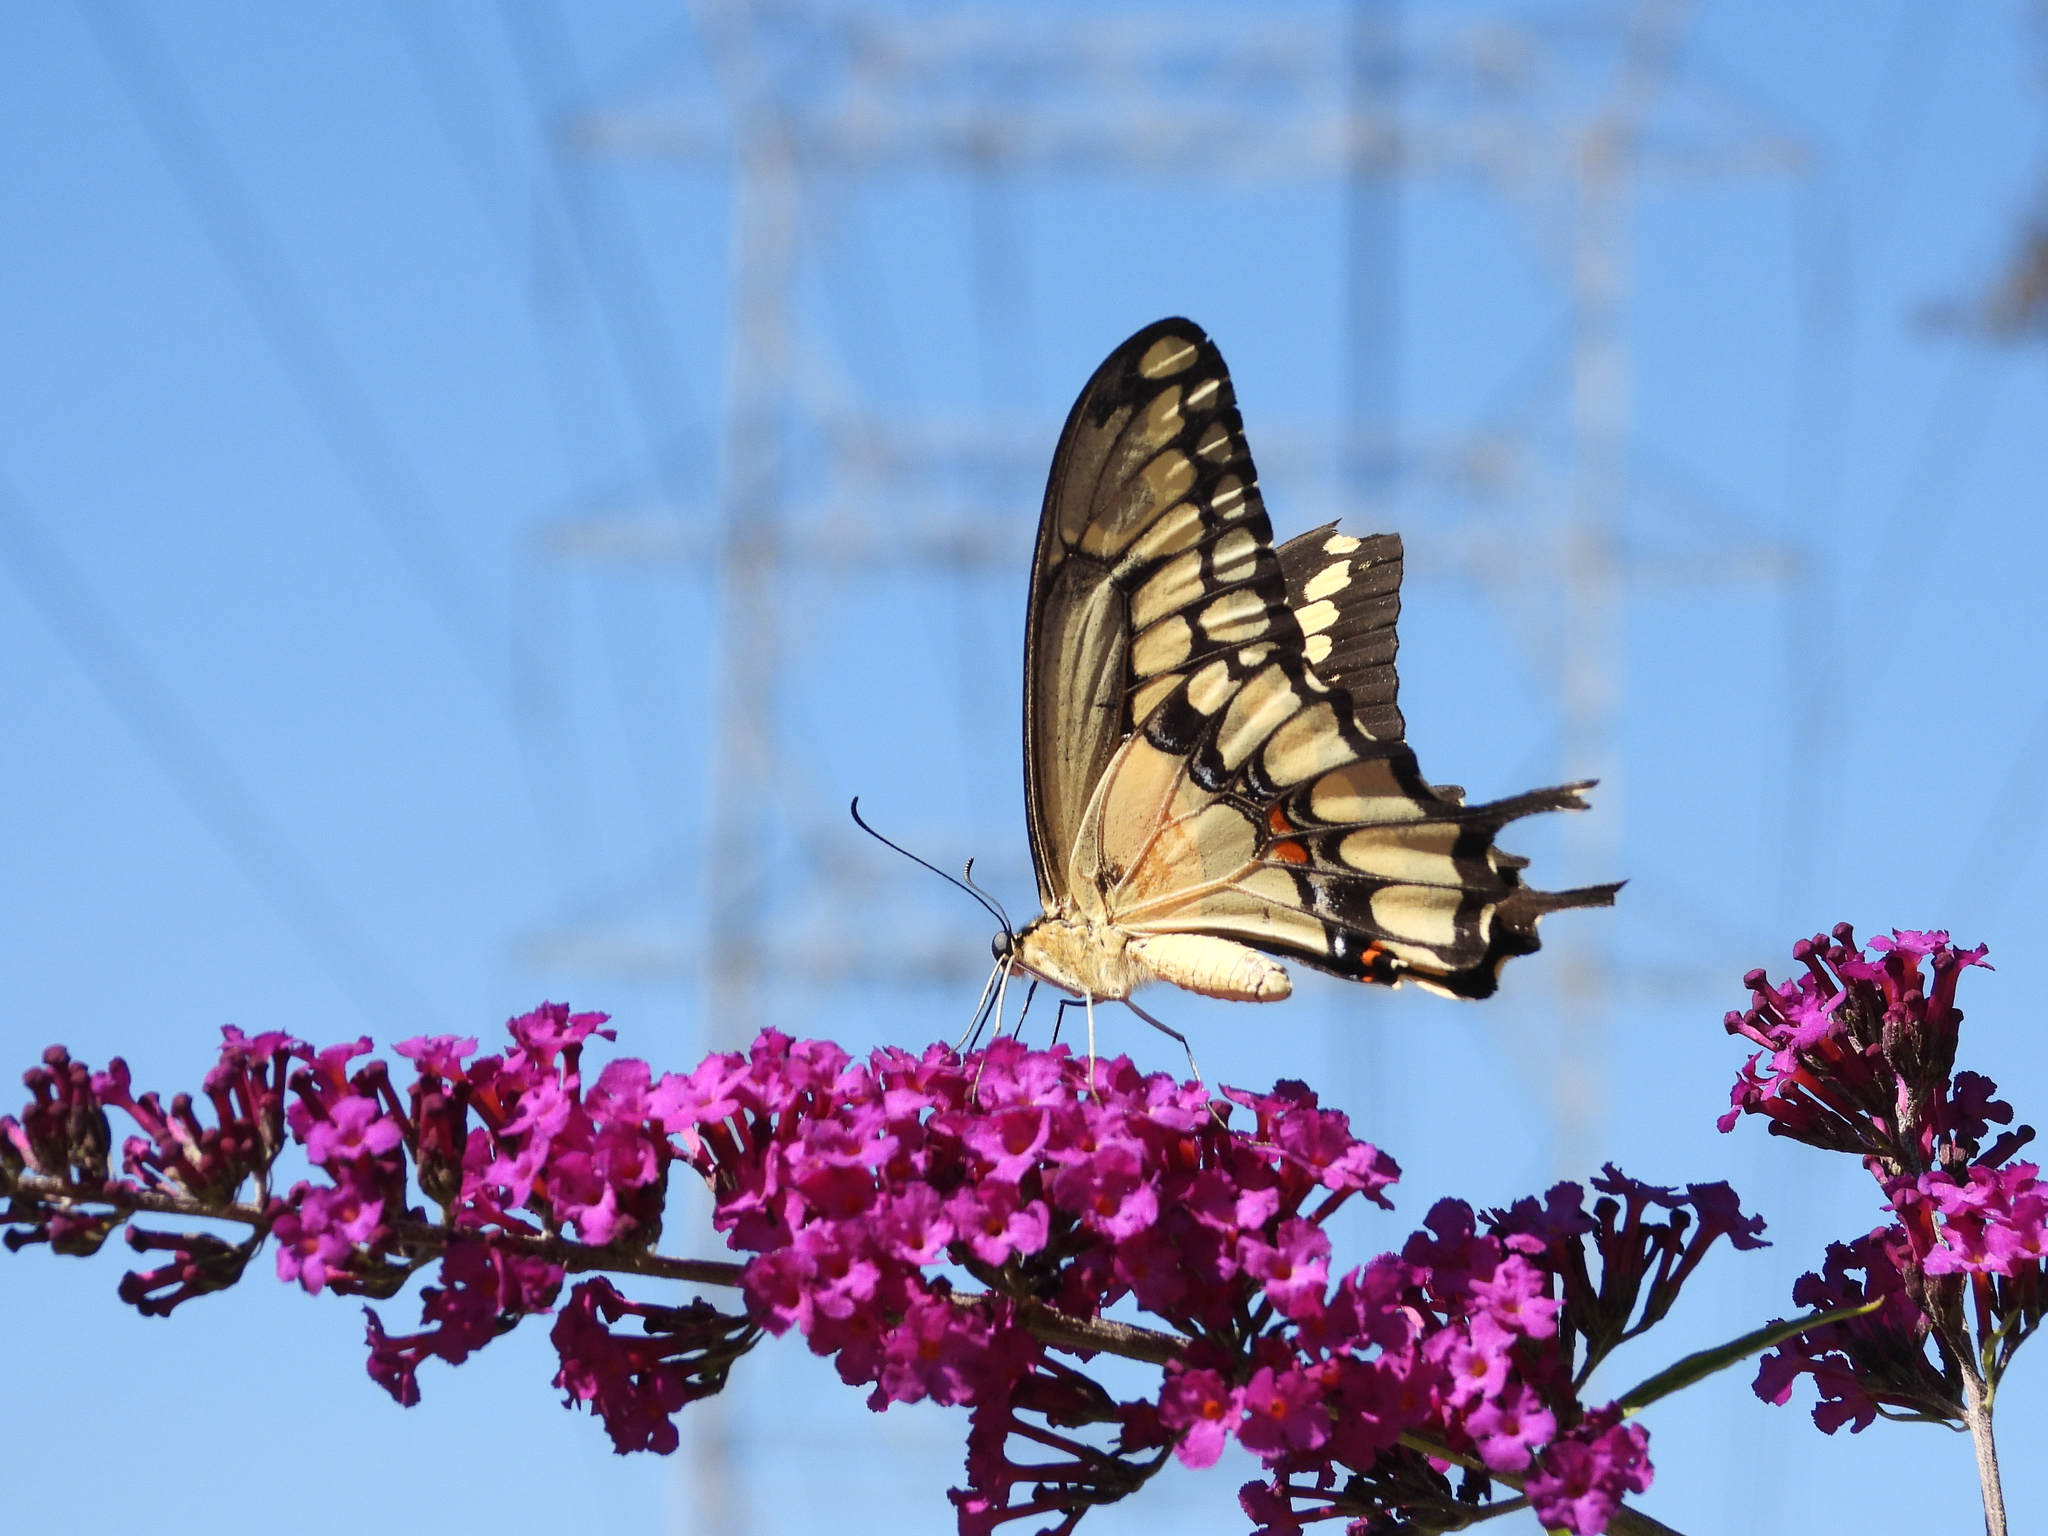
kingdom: Animalia
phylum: Arthropoda
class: Insecta
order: Lepidoptera
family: Papilionidae
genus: Papilio
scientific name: Papilio rumiko
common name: Western giant swallowtail
